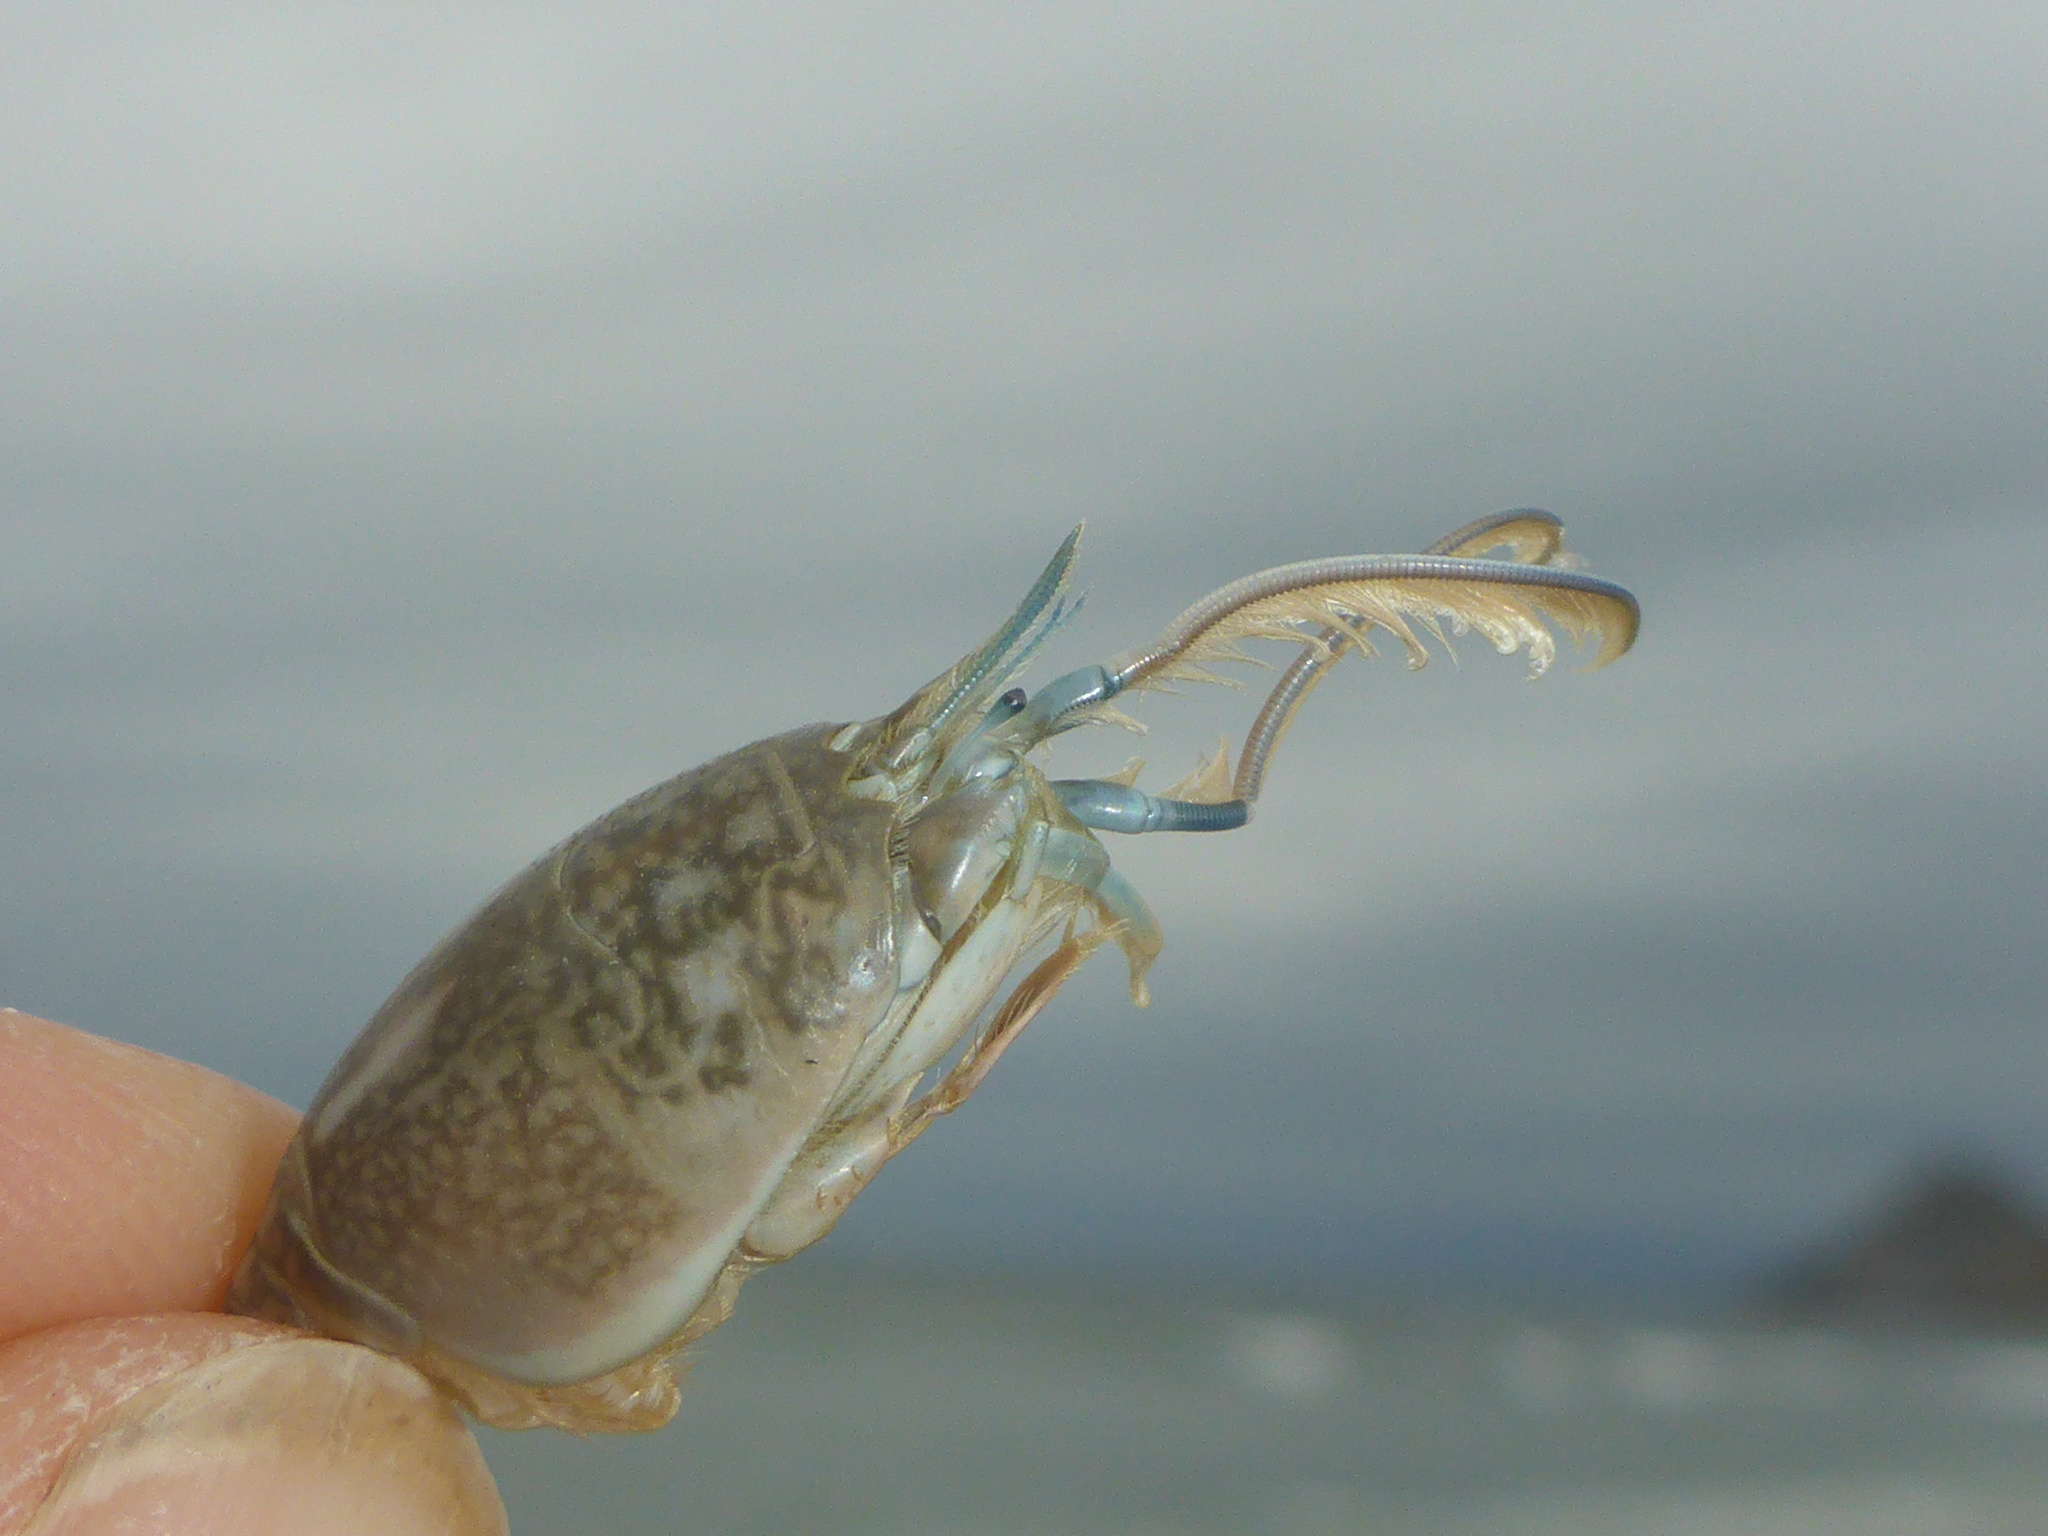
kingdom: Animalia
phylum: Arthropoda
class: Malacostraca
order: Decapoda
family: Hippidae
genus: Emerita
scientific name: Emerita analoga
